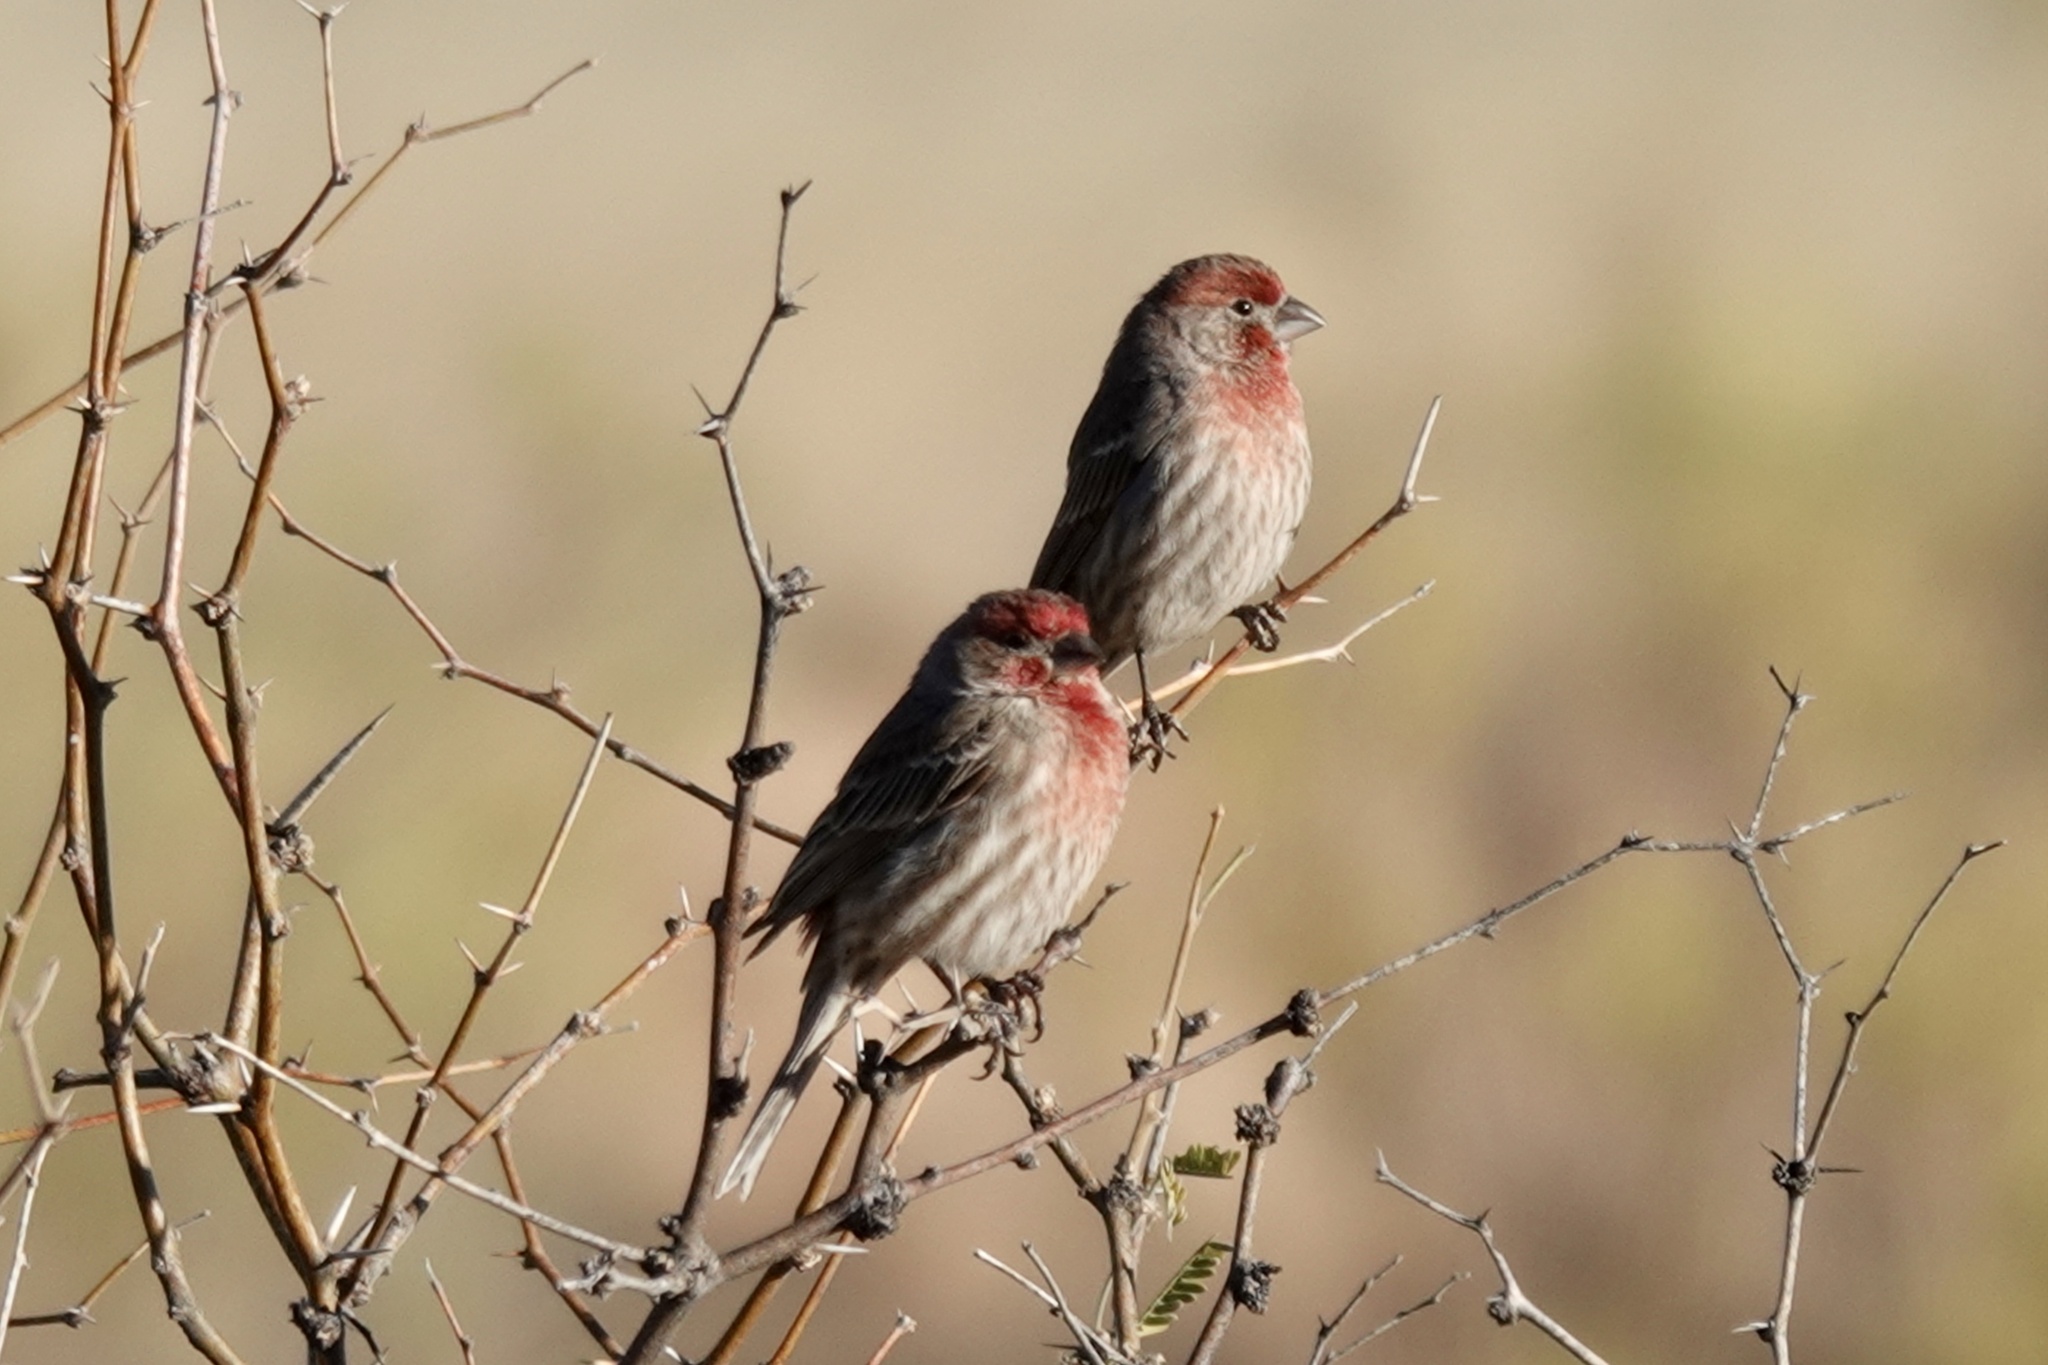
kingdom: Animalia
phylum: Chordata
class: Aves
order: Passeriformes
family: Fringillidae
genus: Haemorhous
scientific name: Haemorhous mexicanus
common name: House finch
